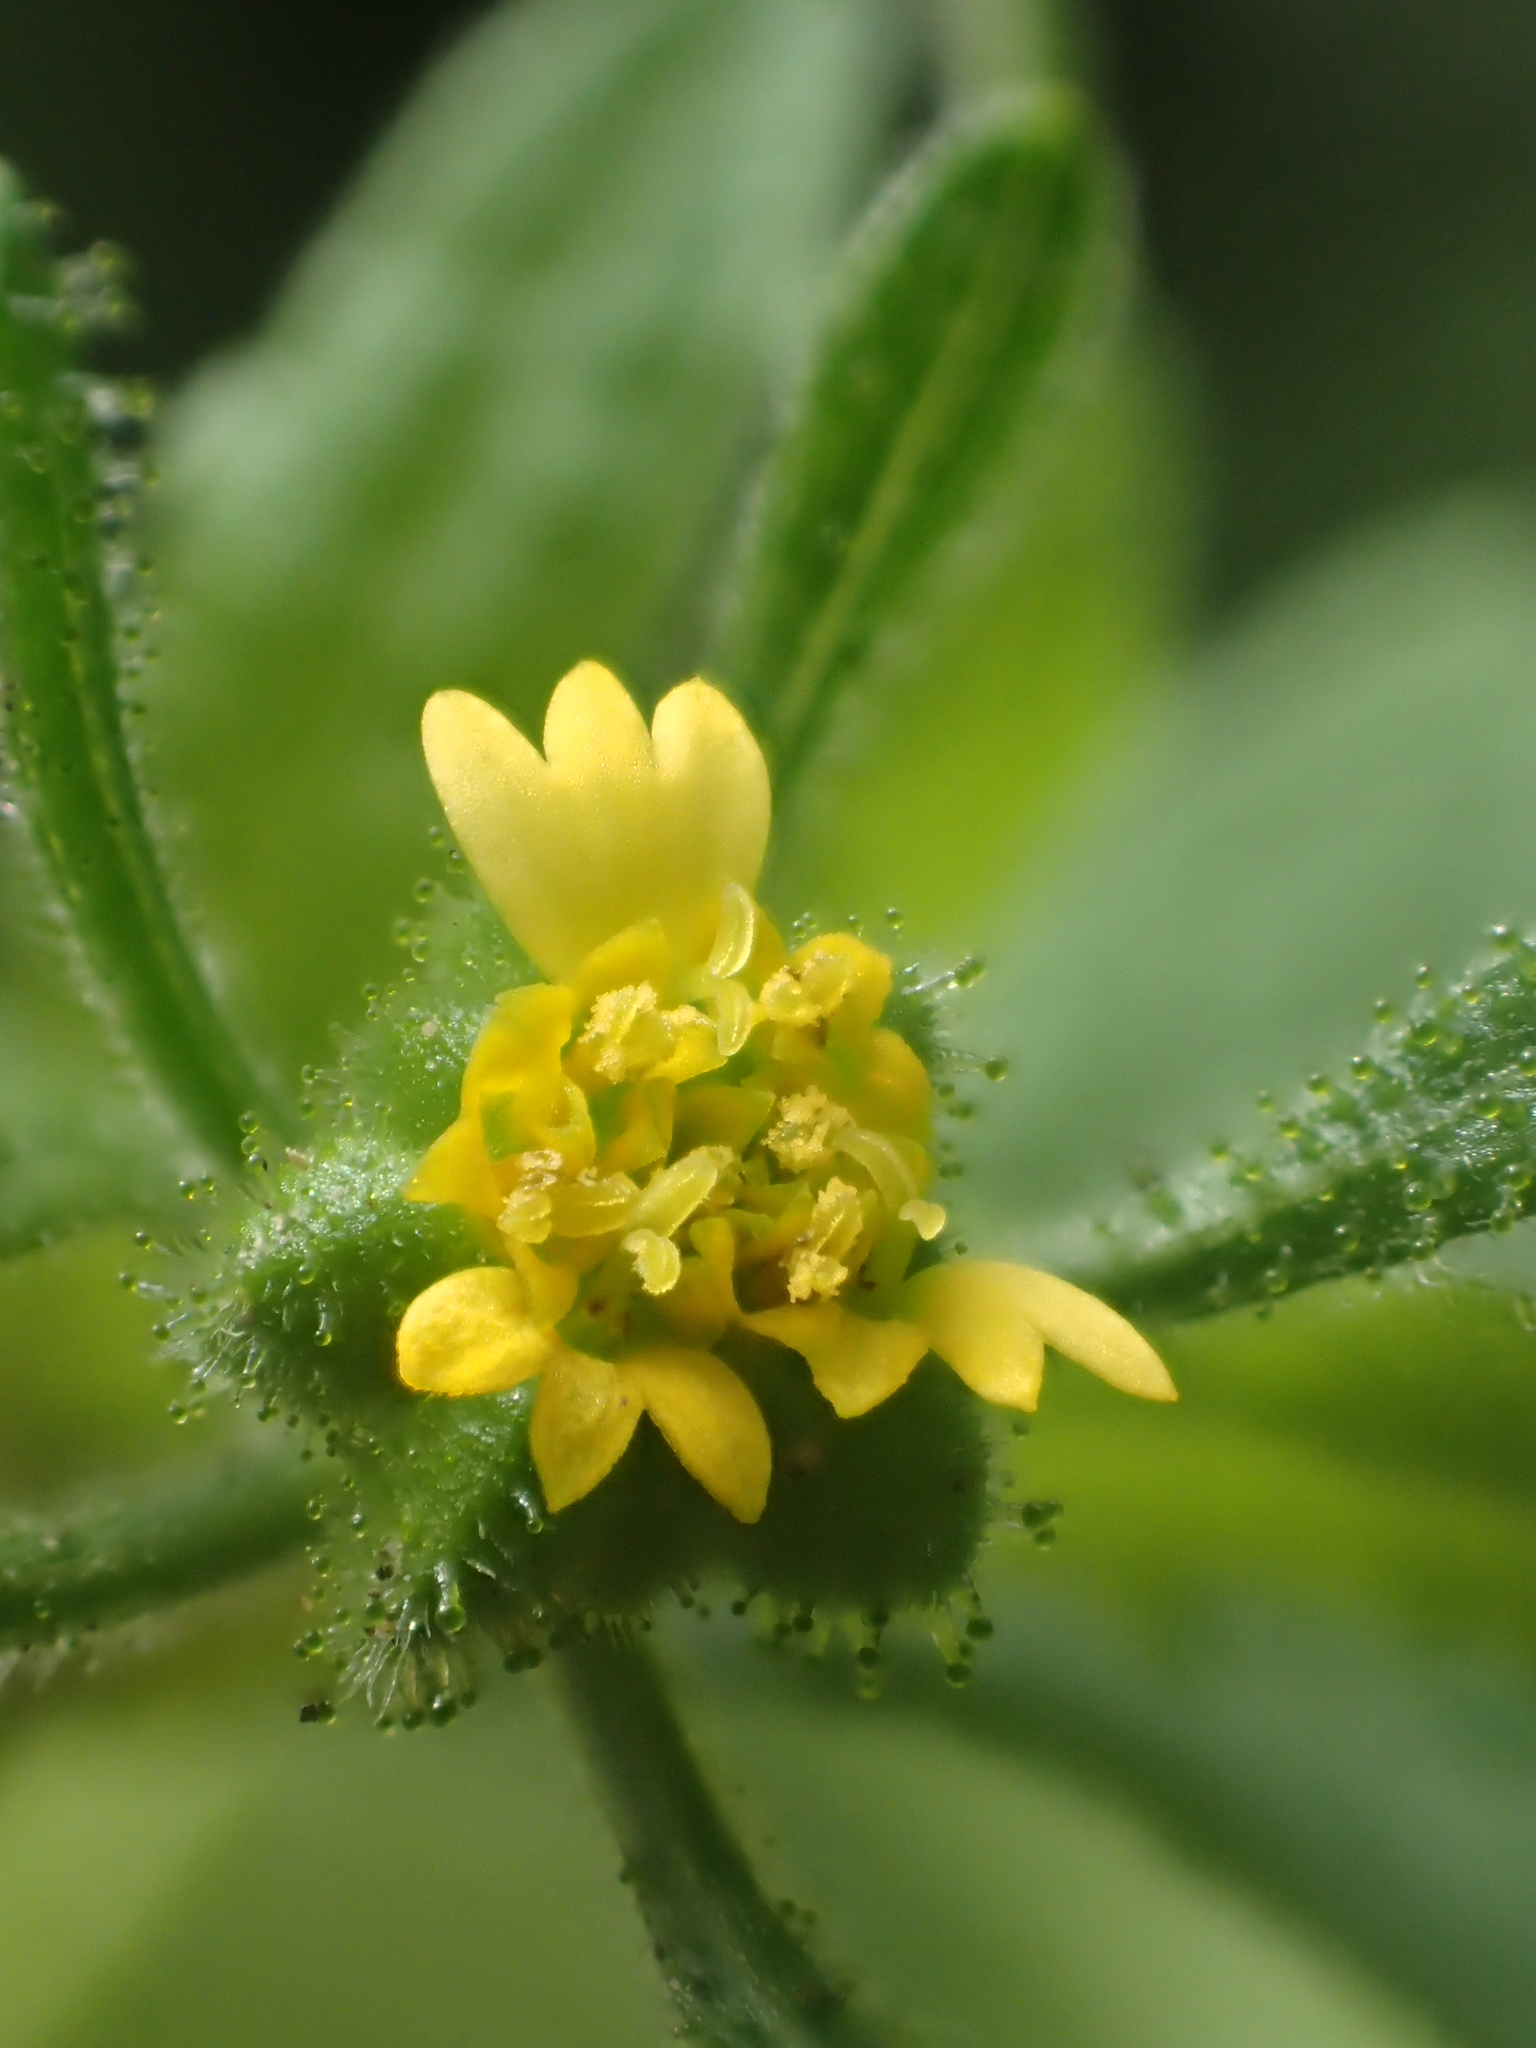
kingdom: Plantae
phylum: Tracheophyta
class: Magnoliopsida
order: Asterales
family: Asteraceae
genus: Sigesbeckia
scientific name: Sigesbeckia orientalis
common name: Eastern st paul's-wort
